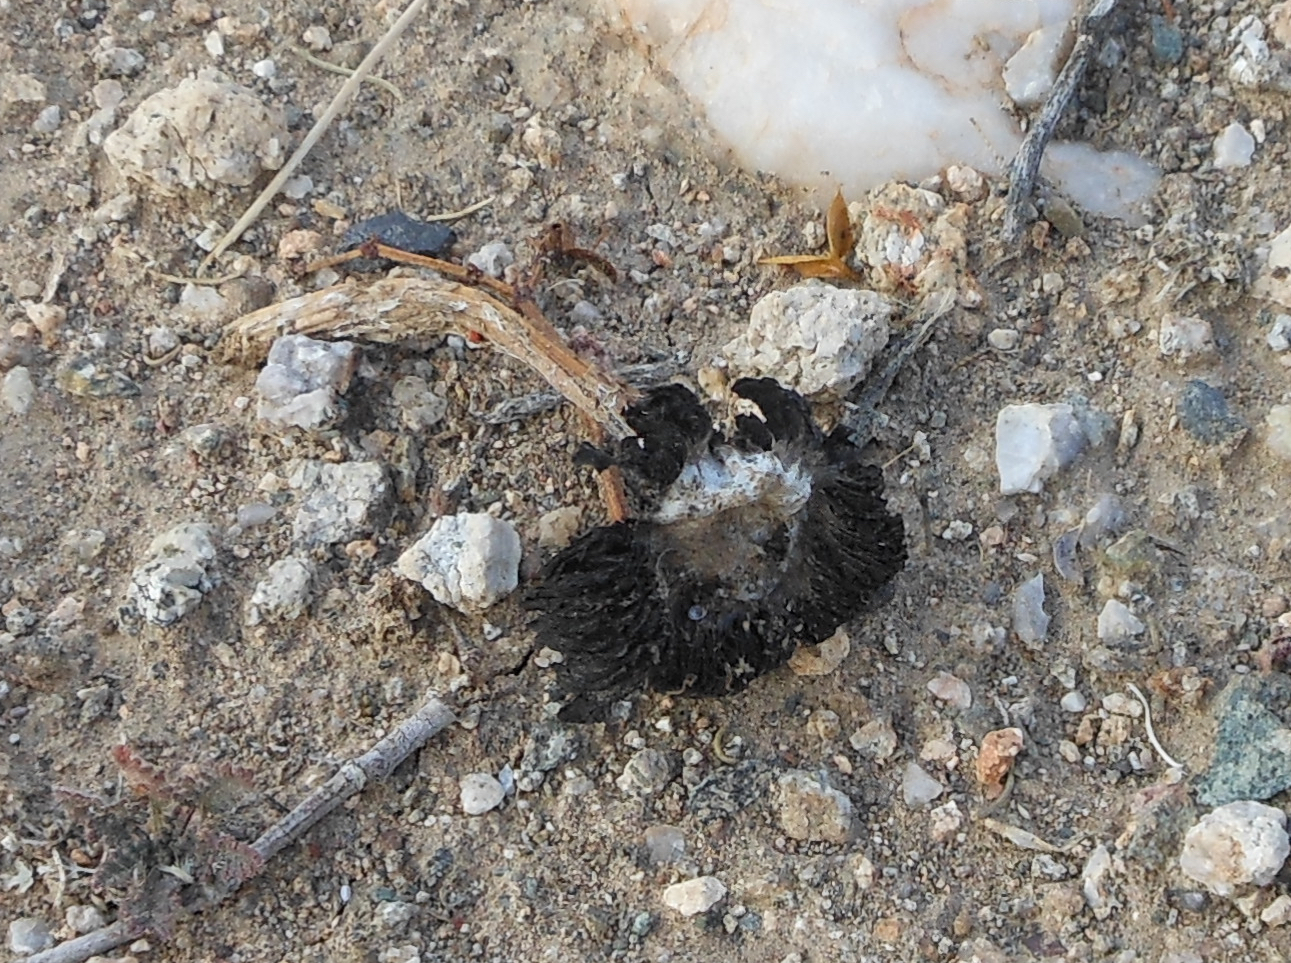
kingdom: Fungi
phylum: Basidiomycota
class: Agaricomycetes
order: Agaricales
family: Agaricaceae
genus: Montagnea
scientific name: Montagnea arenaria
